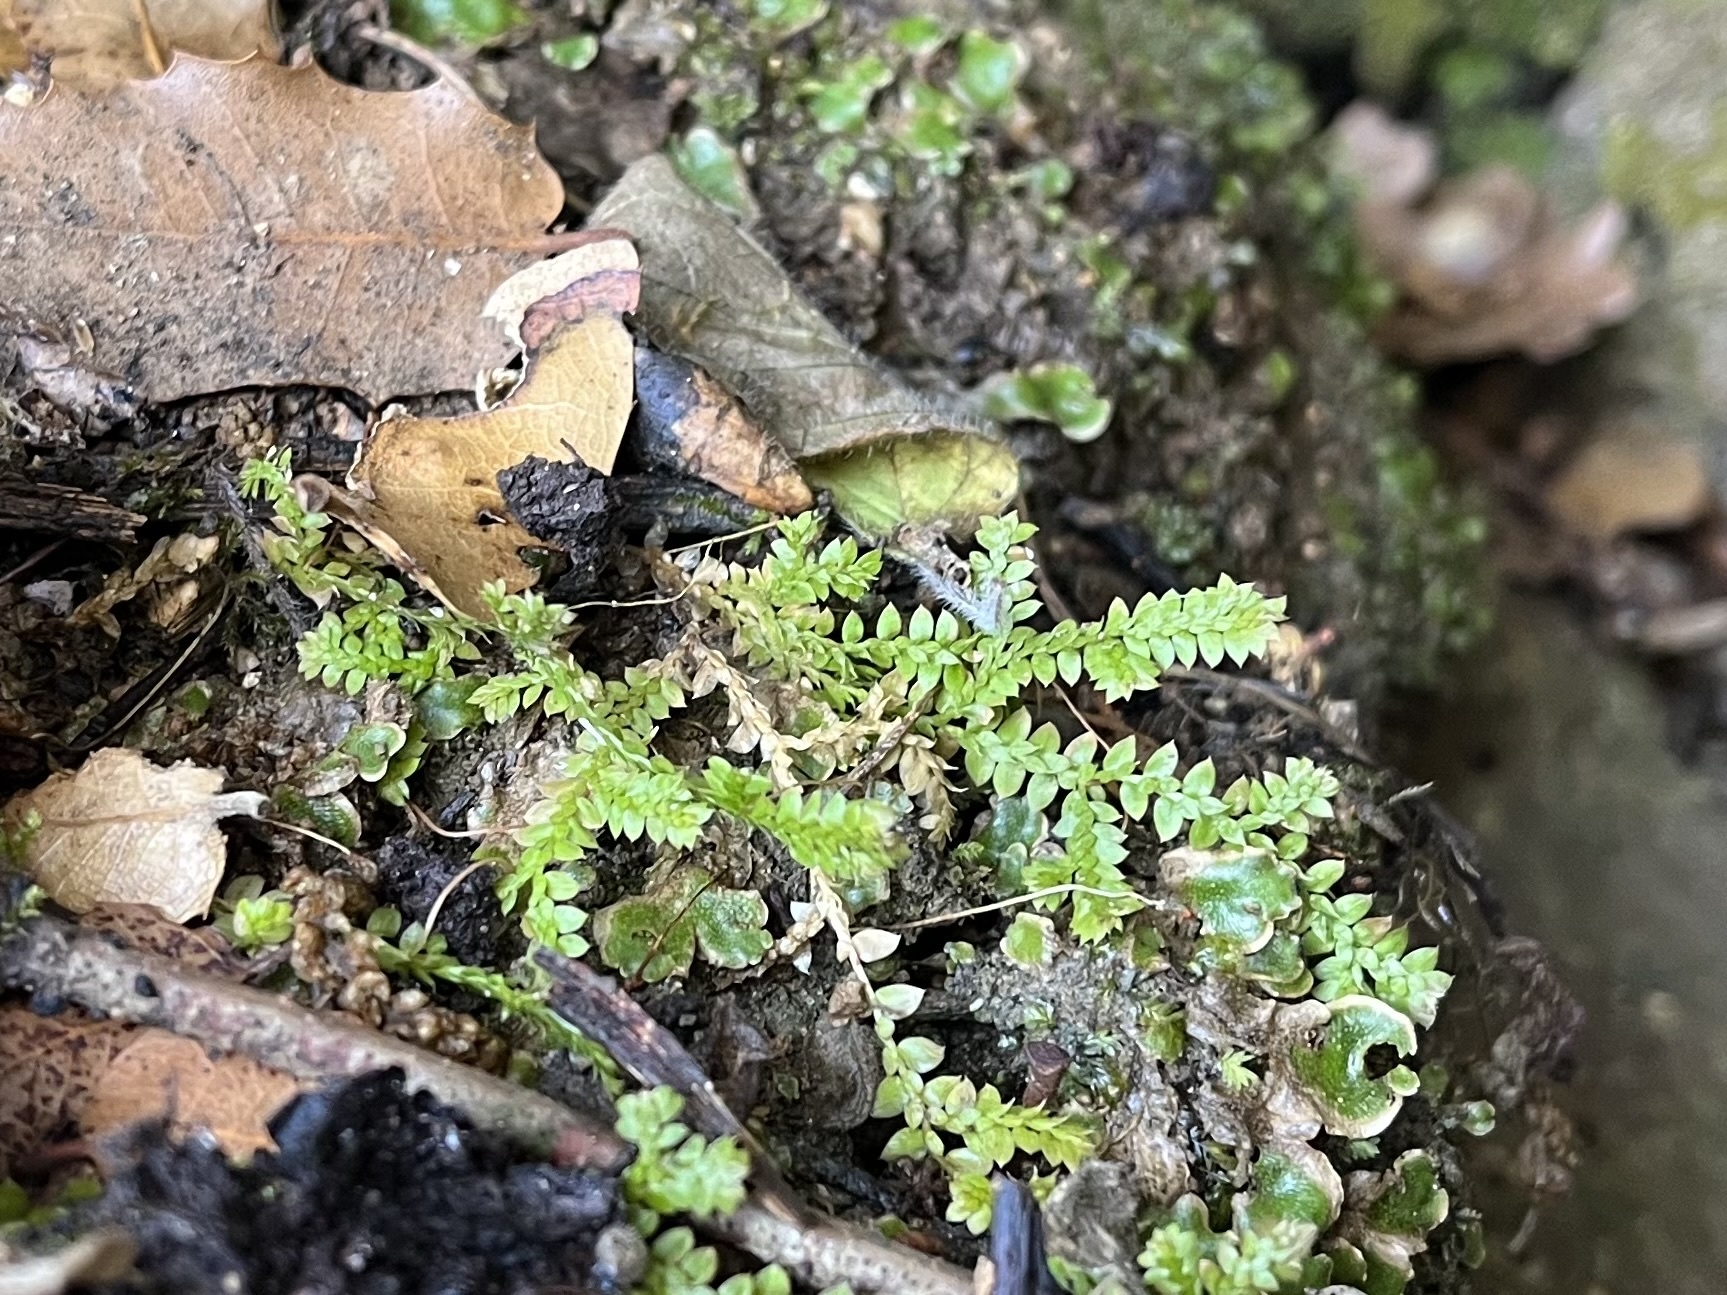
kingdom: Plantae
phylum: Tracheophyta
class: Lycopodiopsida
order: Selaginellales
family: Selaginellaceae
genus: Selaginella
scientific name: Selaginella denticulata
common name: Toothed-leaved clubmoss
